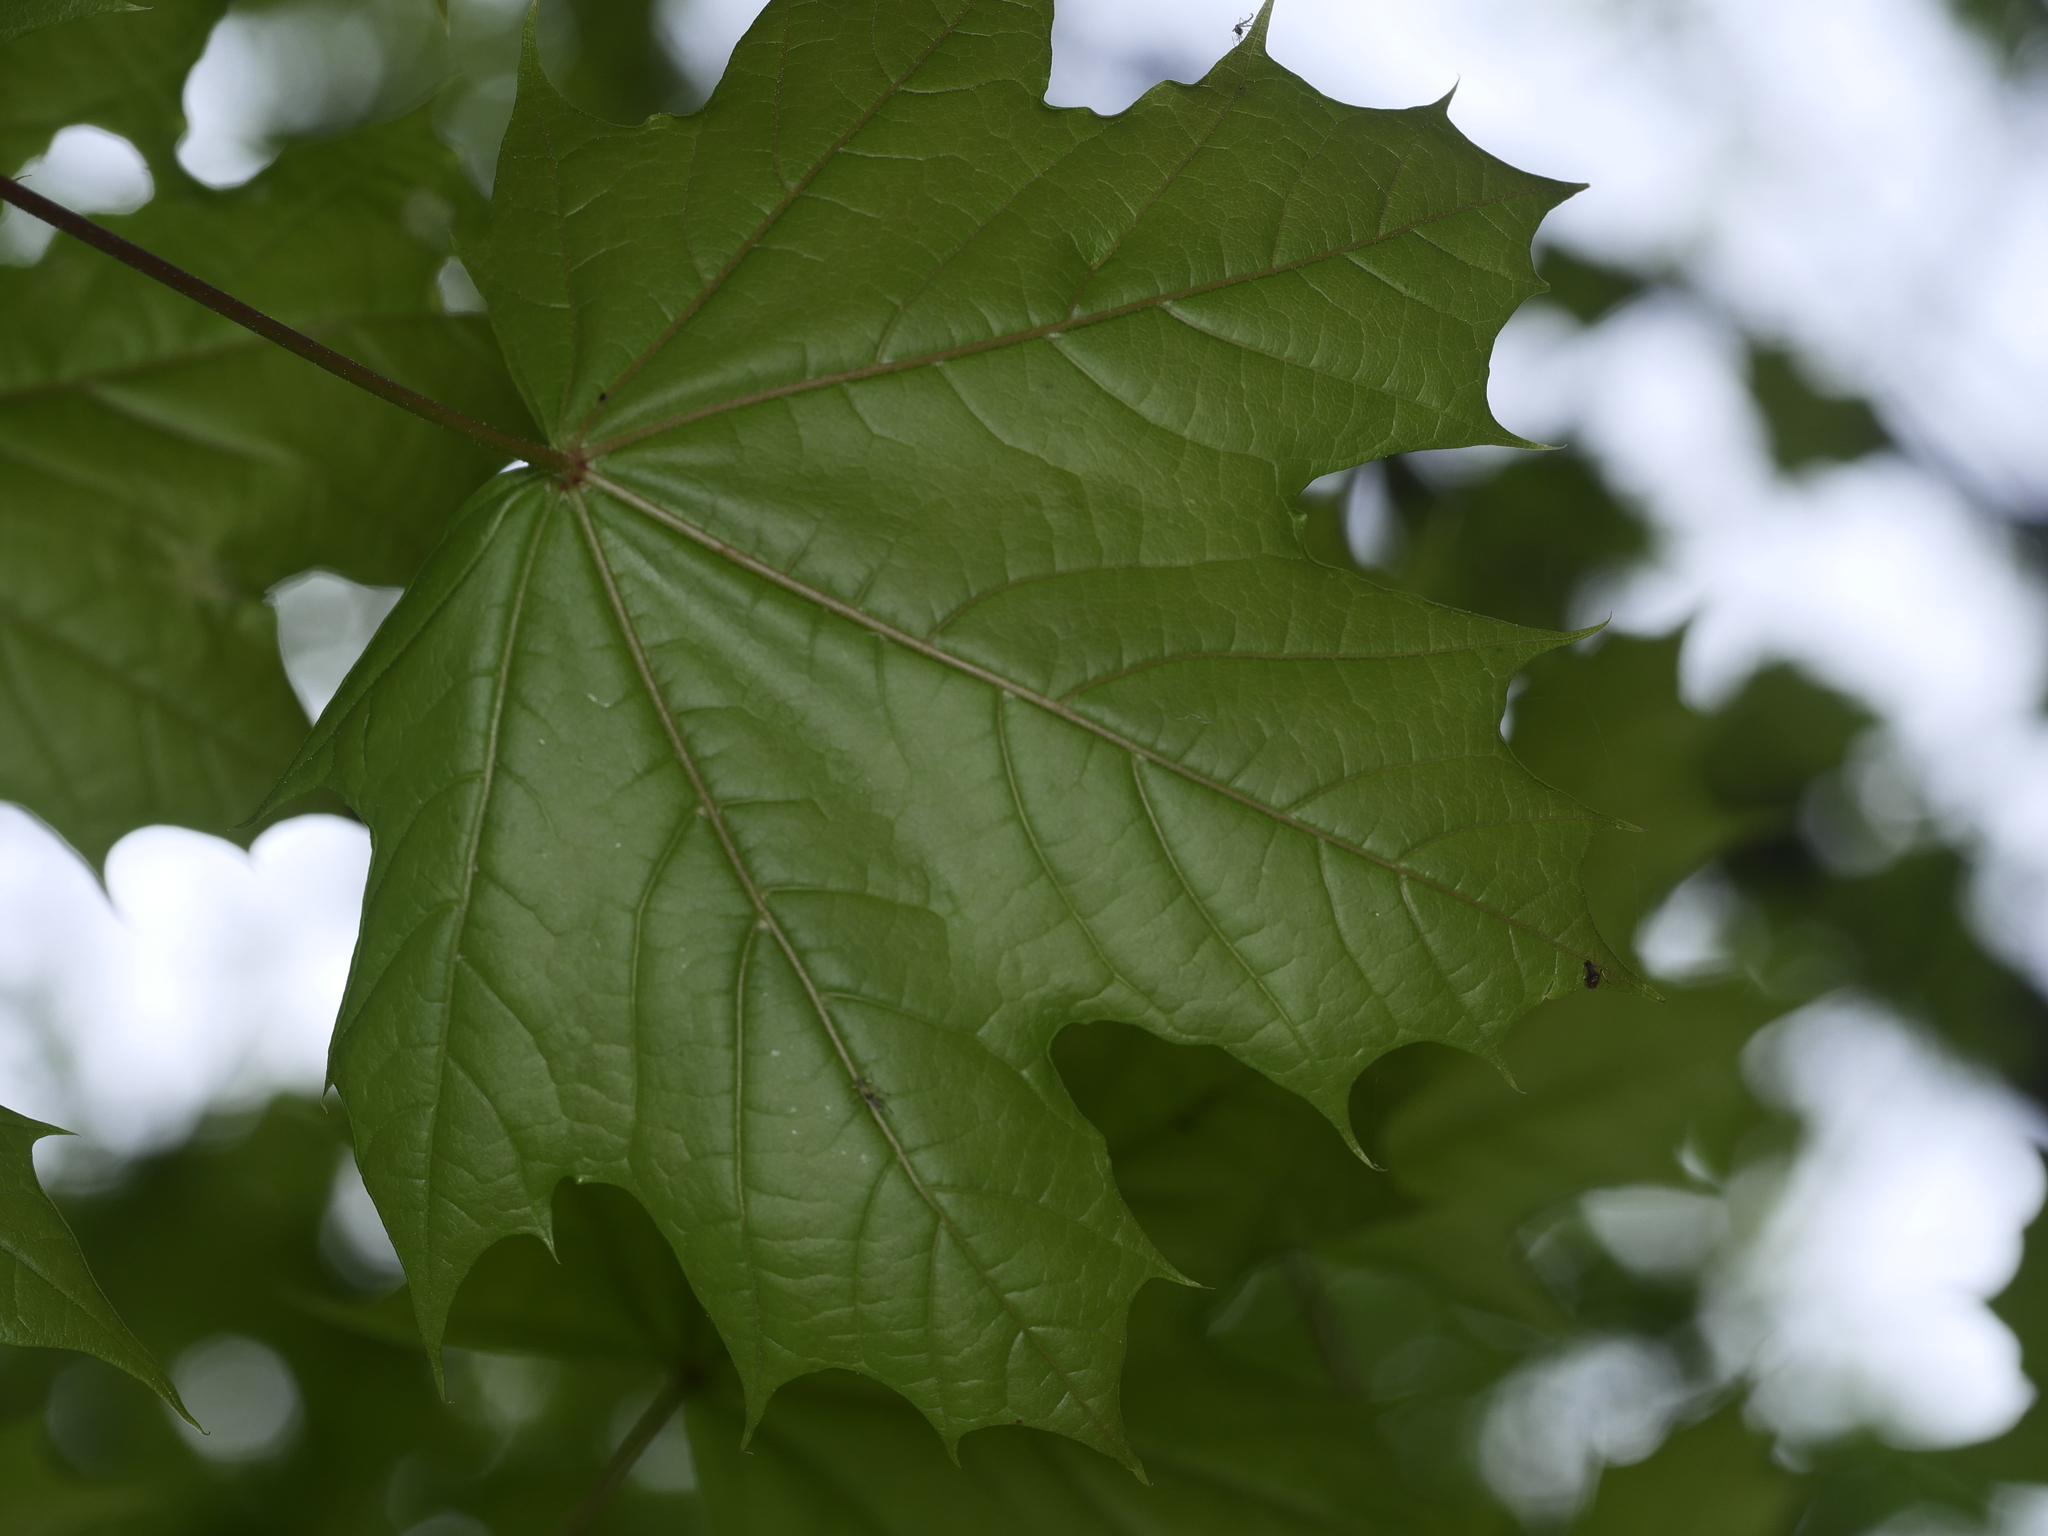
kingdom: Plantae
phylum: Tracheophyta
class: Magnoliopsida
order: Sapindales
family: Sapindaceae
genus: Acer
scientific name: Acer platanoides
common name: Norway maple
